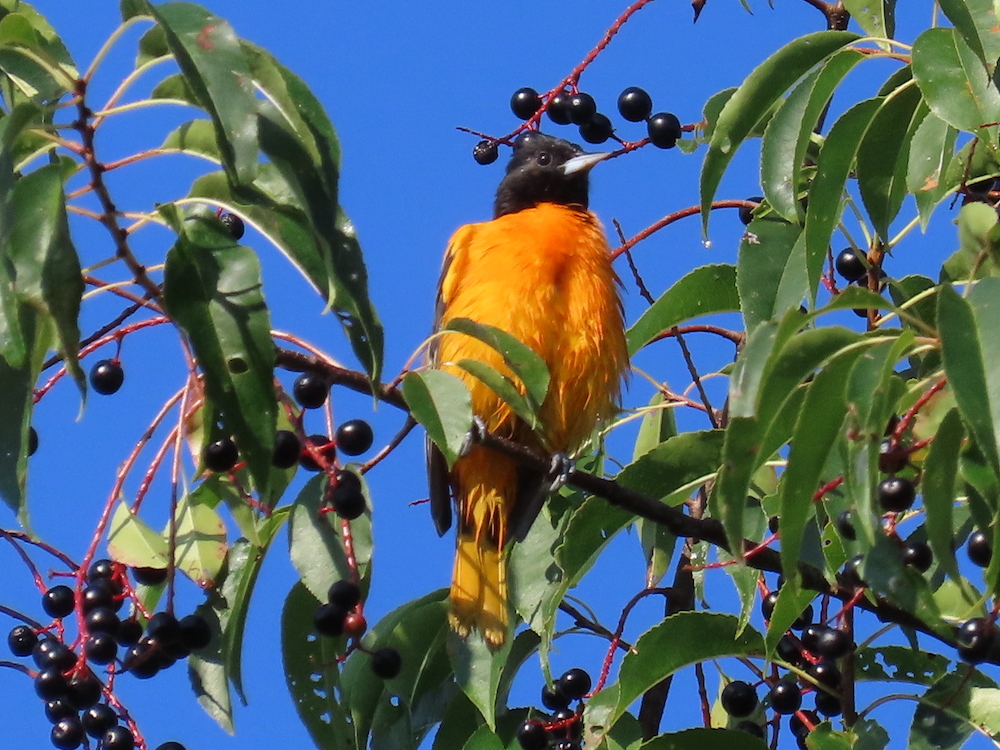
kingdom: Animalia
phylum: Chordata
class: Aves
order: Passeriformes
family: Icteridae
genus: Icterus
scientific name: Icterus galbula
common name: Baltimore oriole
